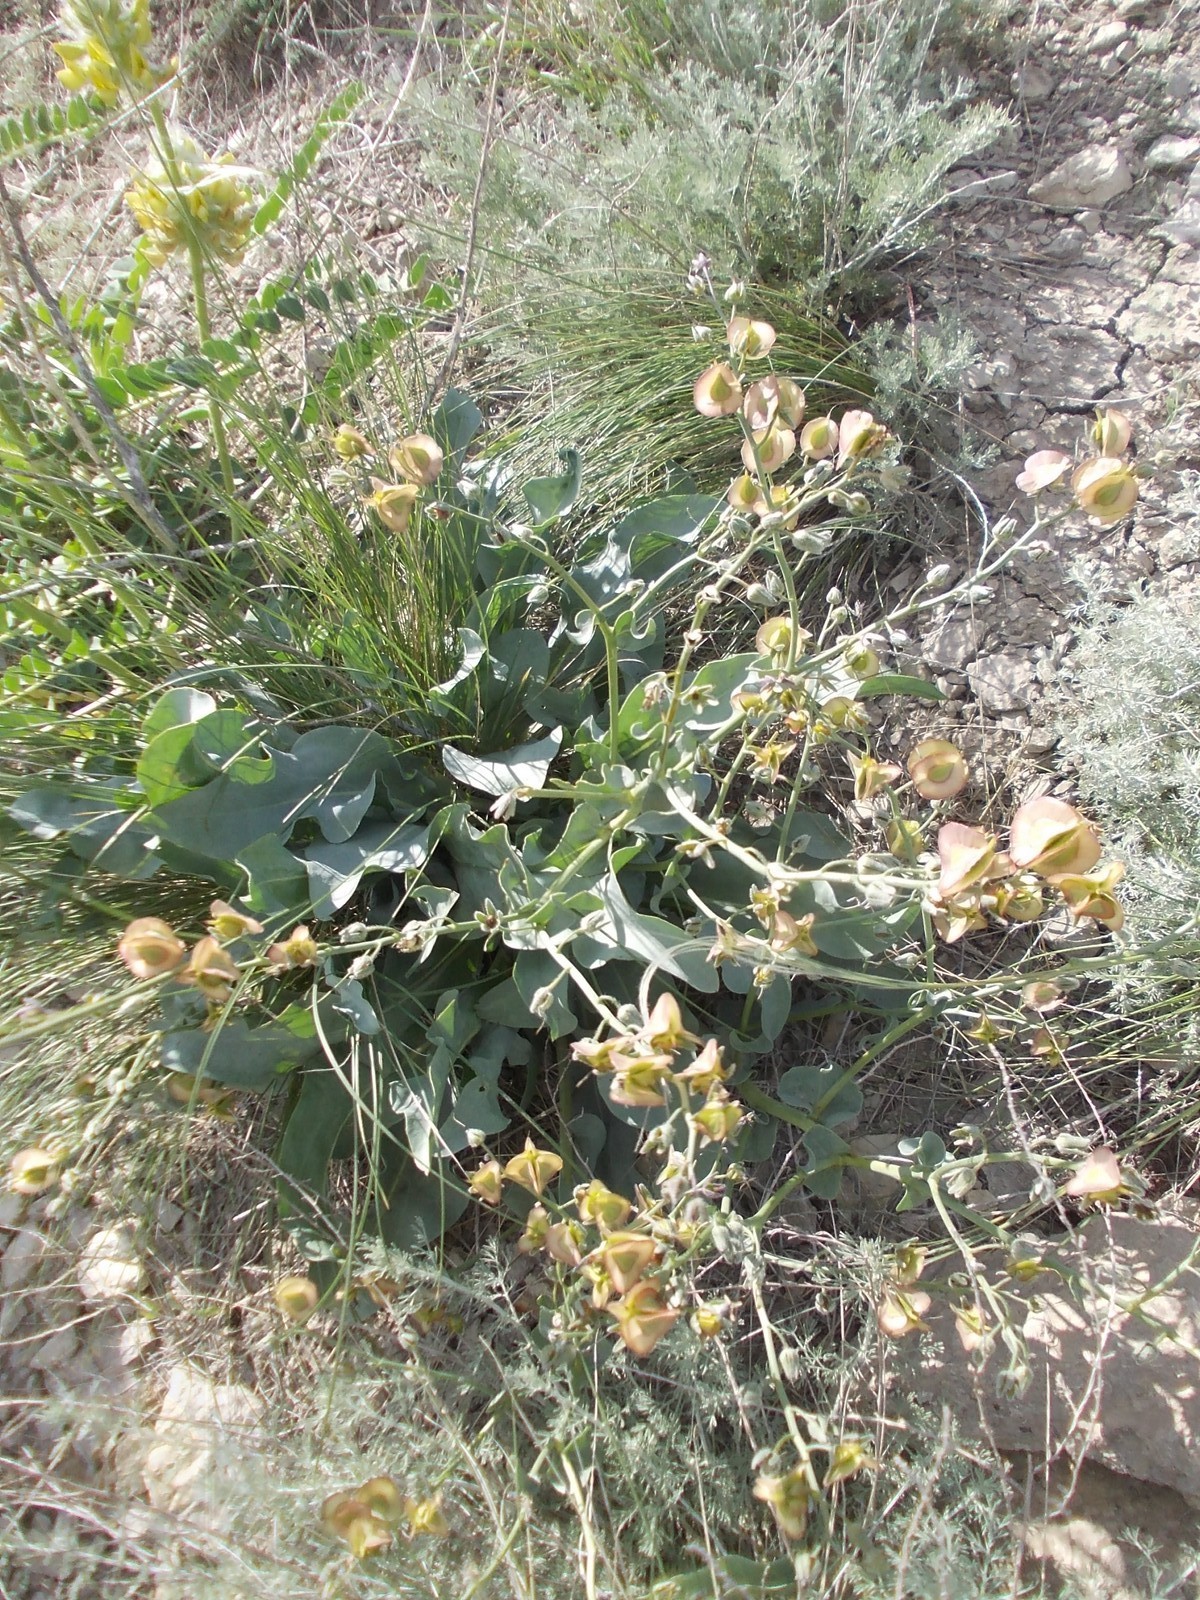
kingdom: Plantae
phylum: Tracheophyta
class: Magnoliopsida
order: Boraginales
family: Boraginaceae
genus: Rindera
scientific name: Rindera tetraspis
